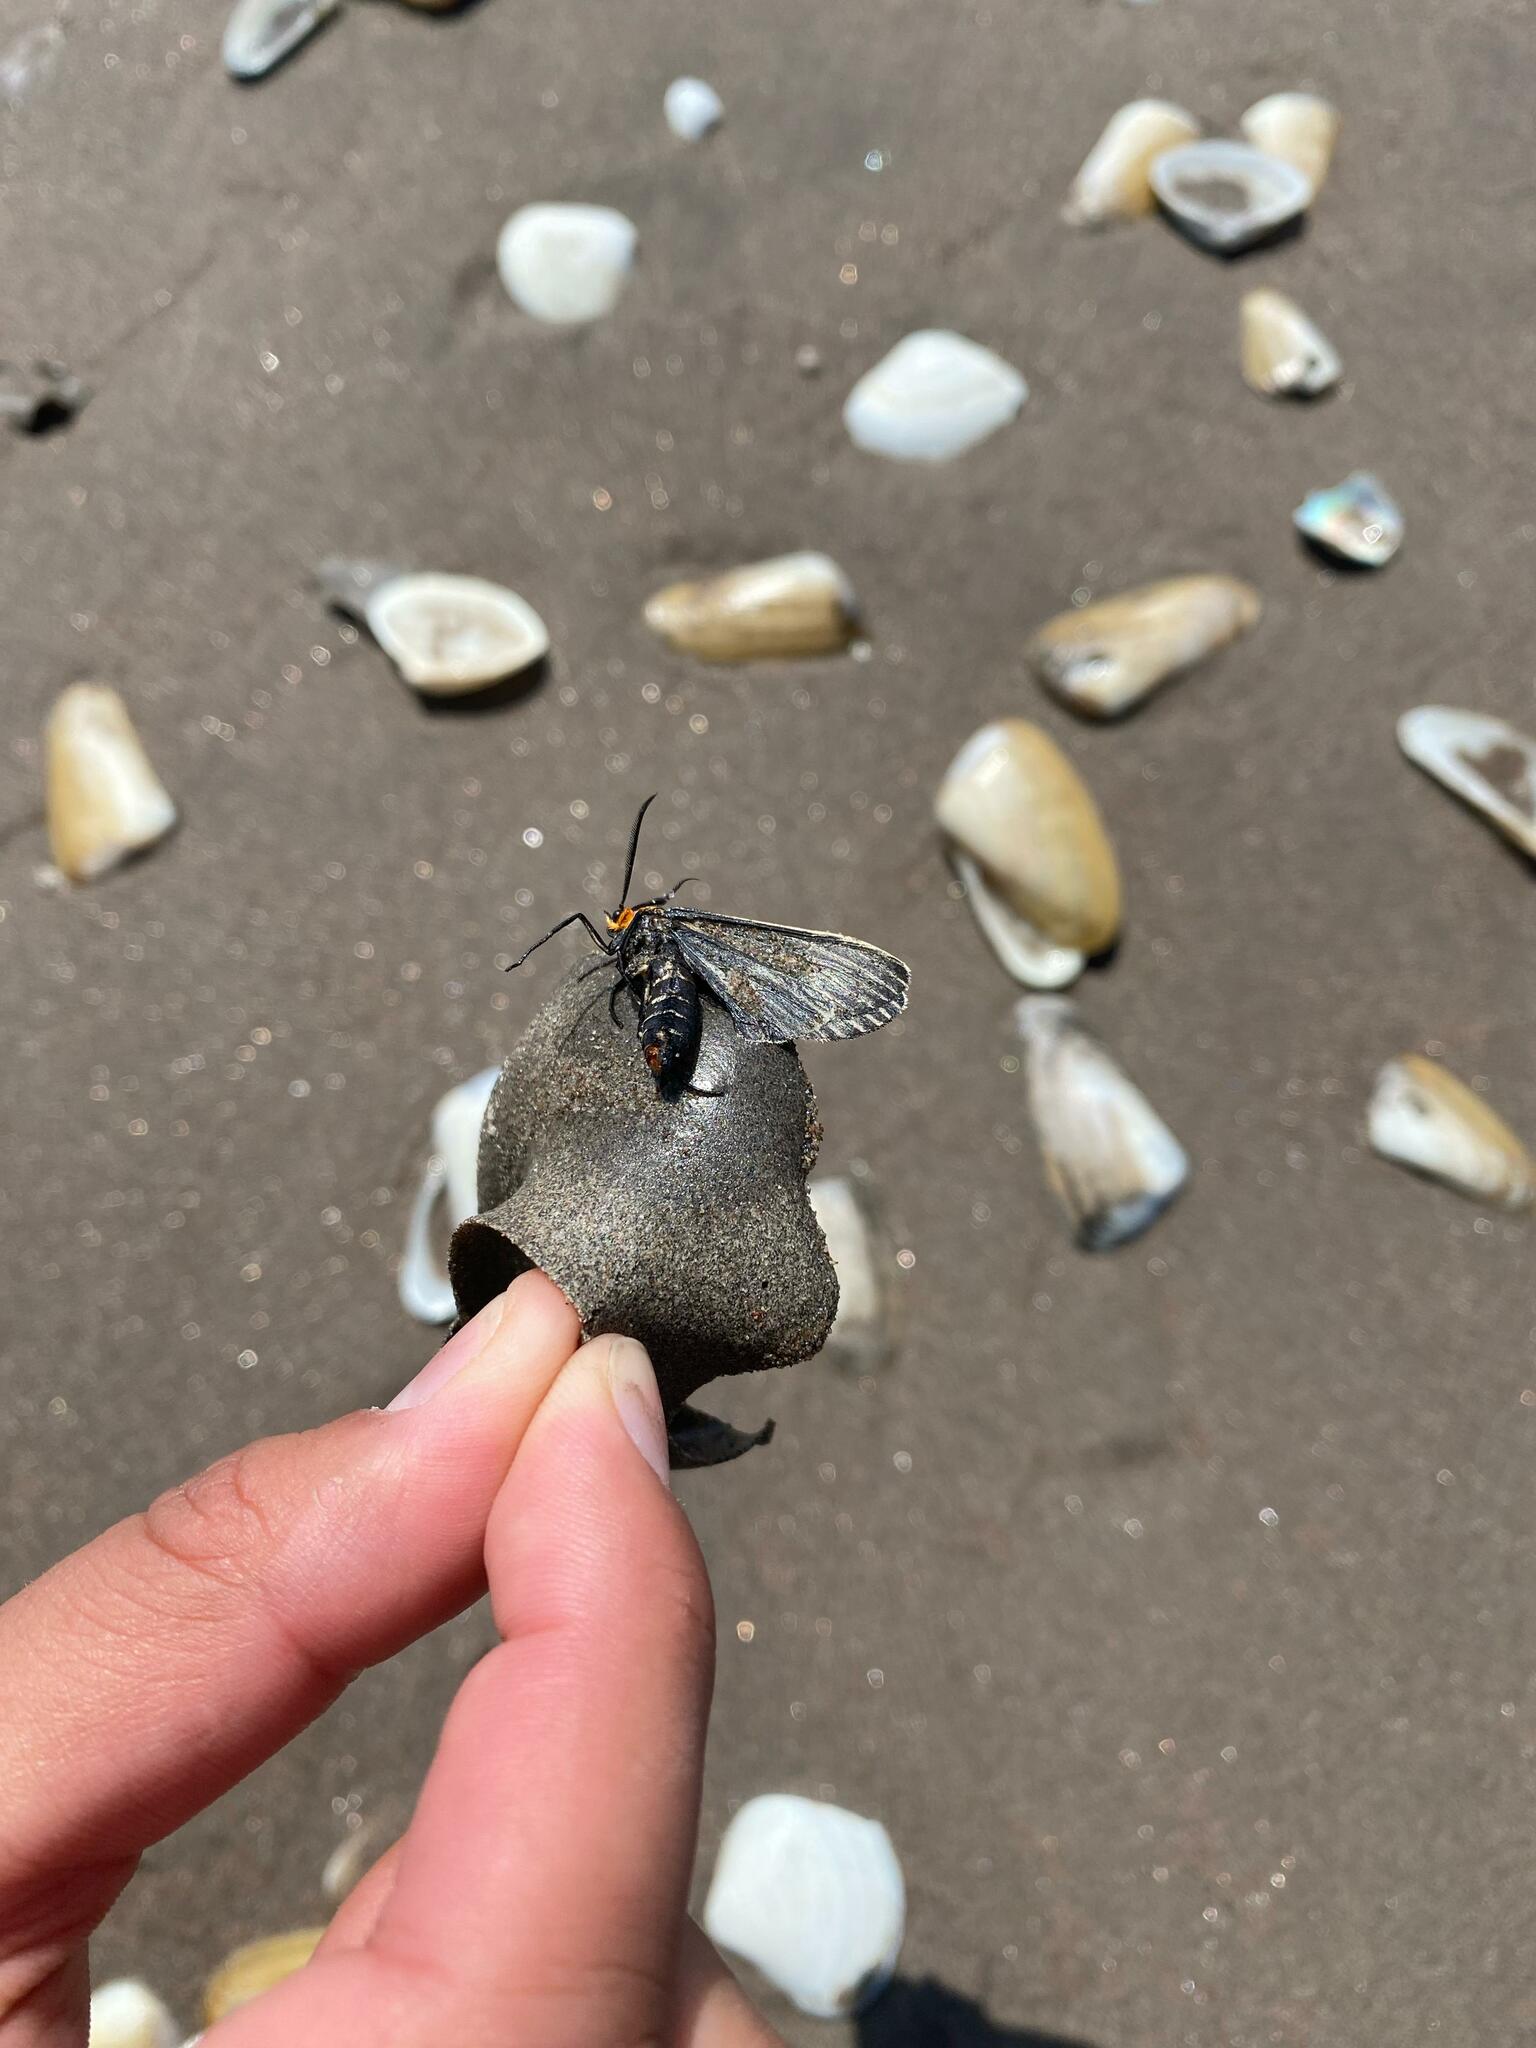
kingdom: Animalia
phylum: Arthropoda
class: Insecta
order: Lepidoptera
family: Erebidae
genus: Ctenucha
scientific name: Ctenucha vittigerum
